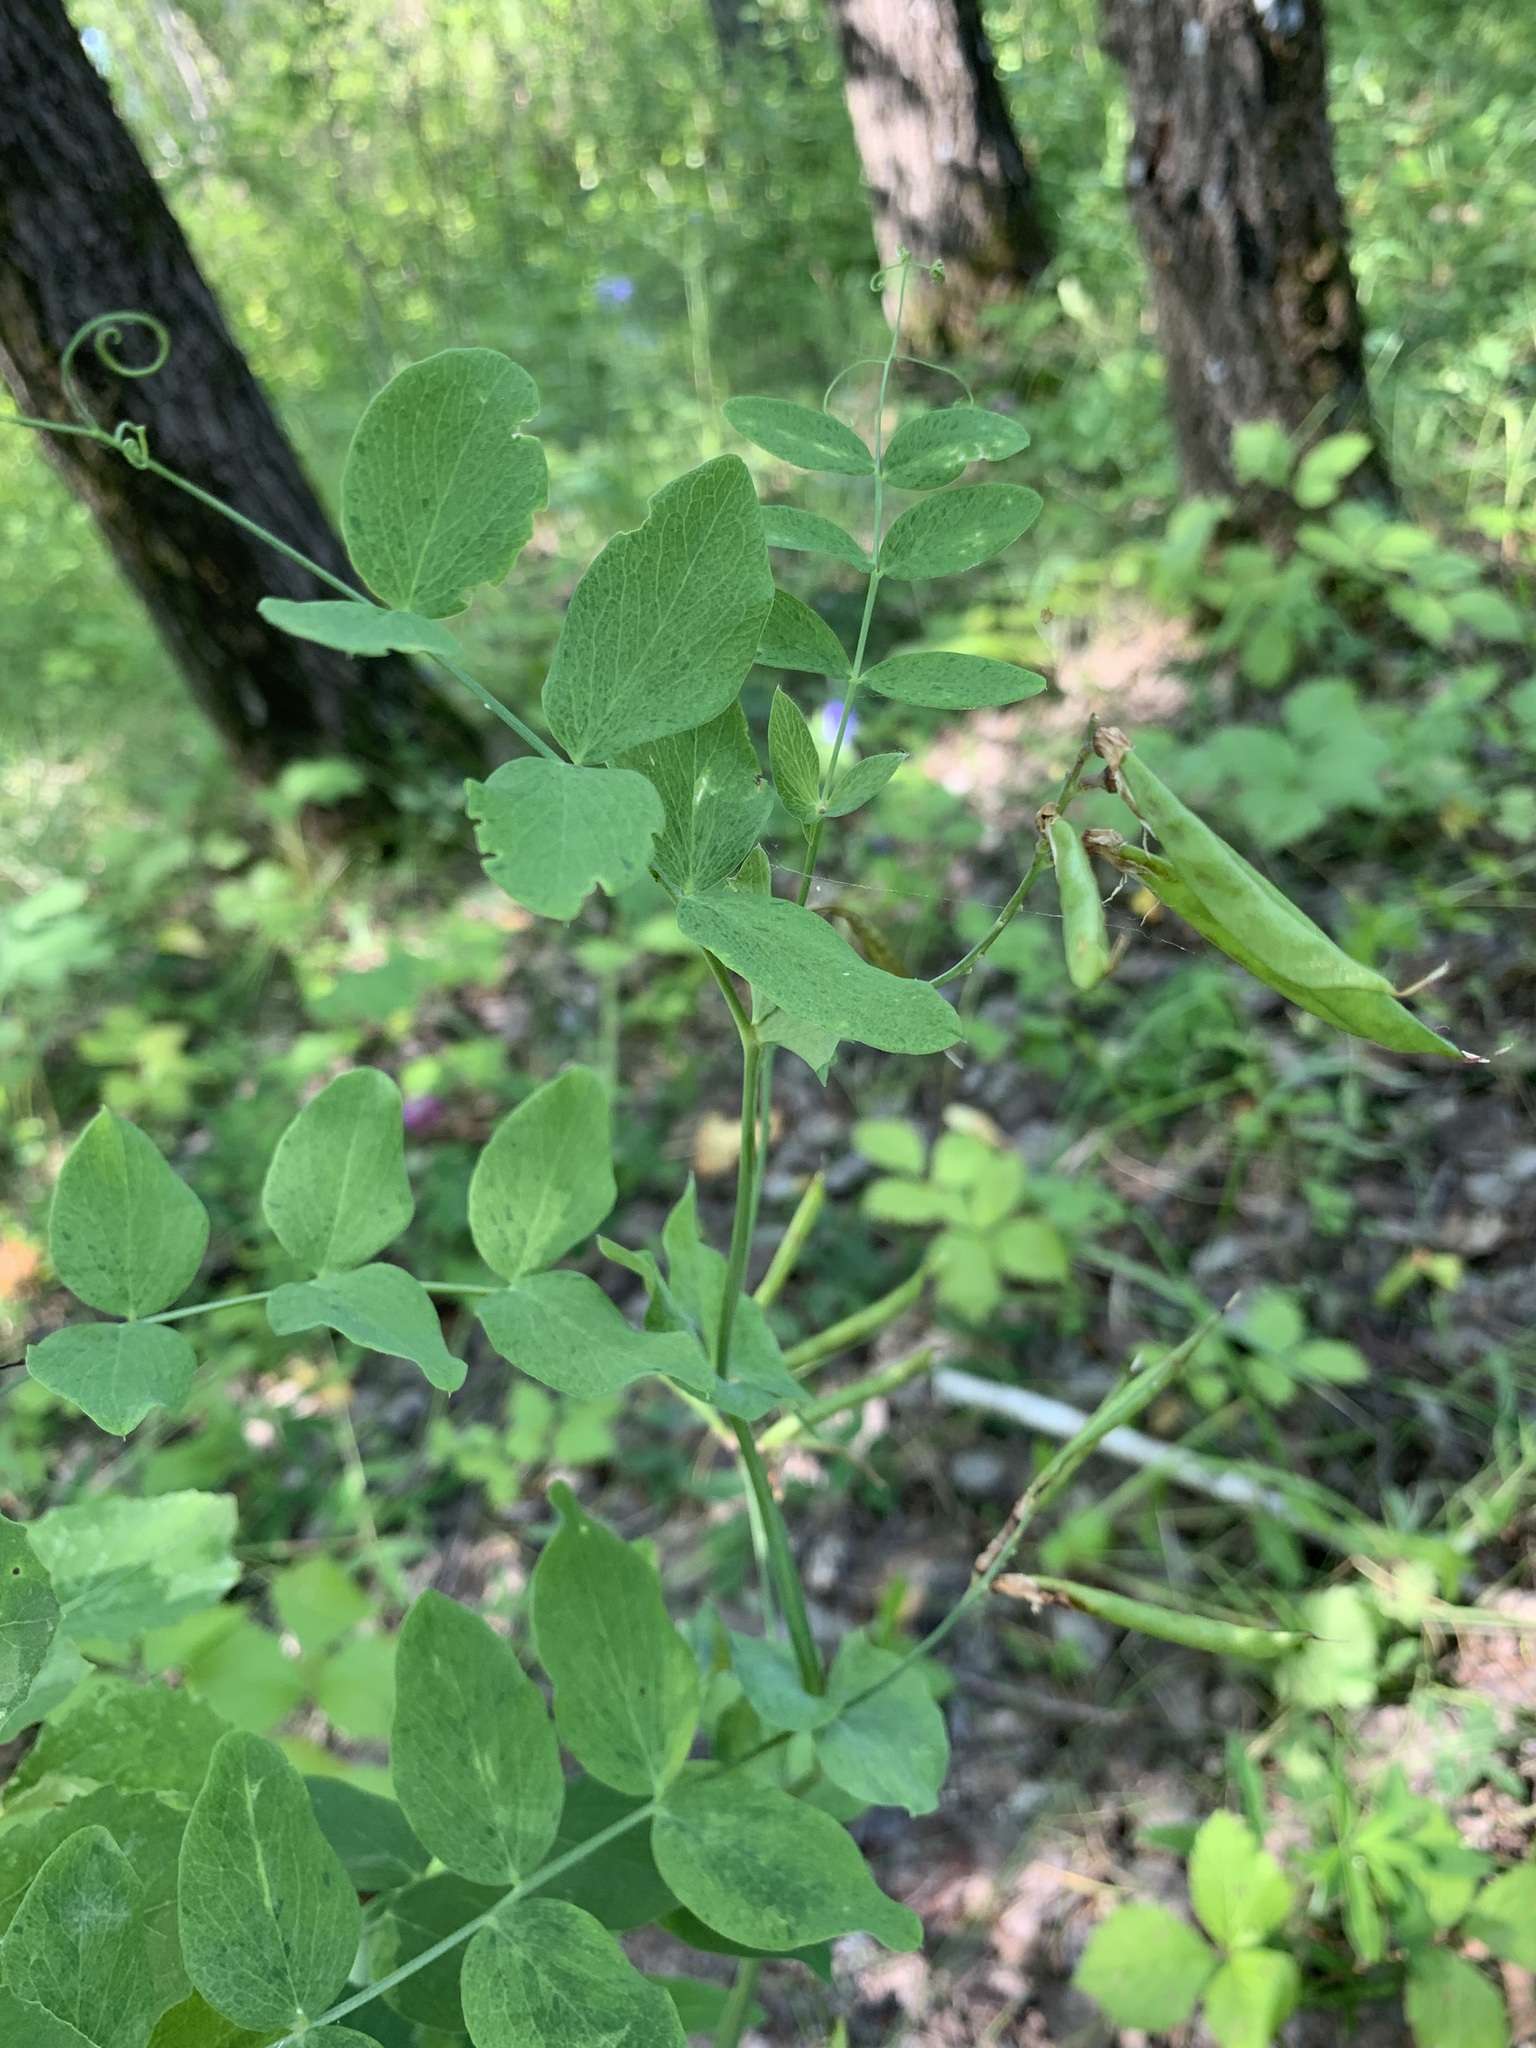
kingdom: Plantae
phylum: Tracheophyta
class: Magnoliopsida
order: Fabales
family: Fabaceae
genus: Lathyrus
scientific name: Lathyrus pisiformis
